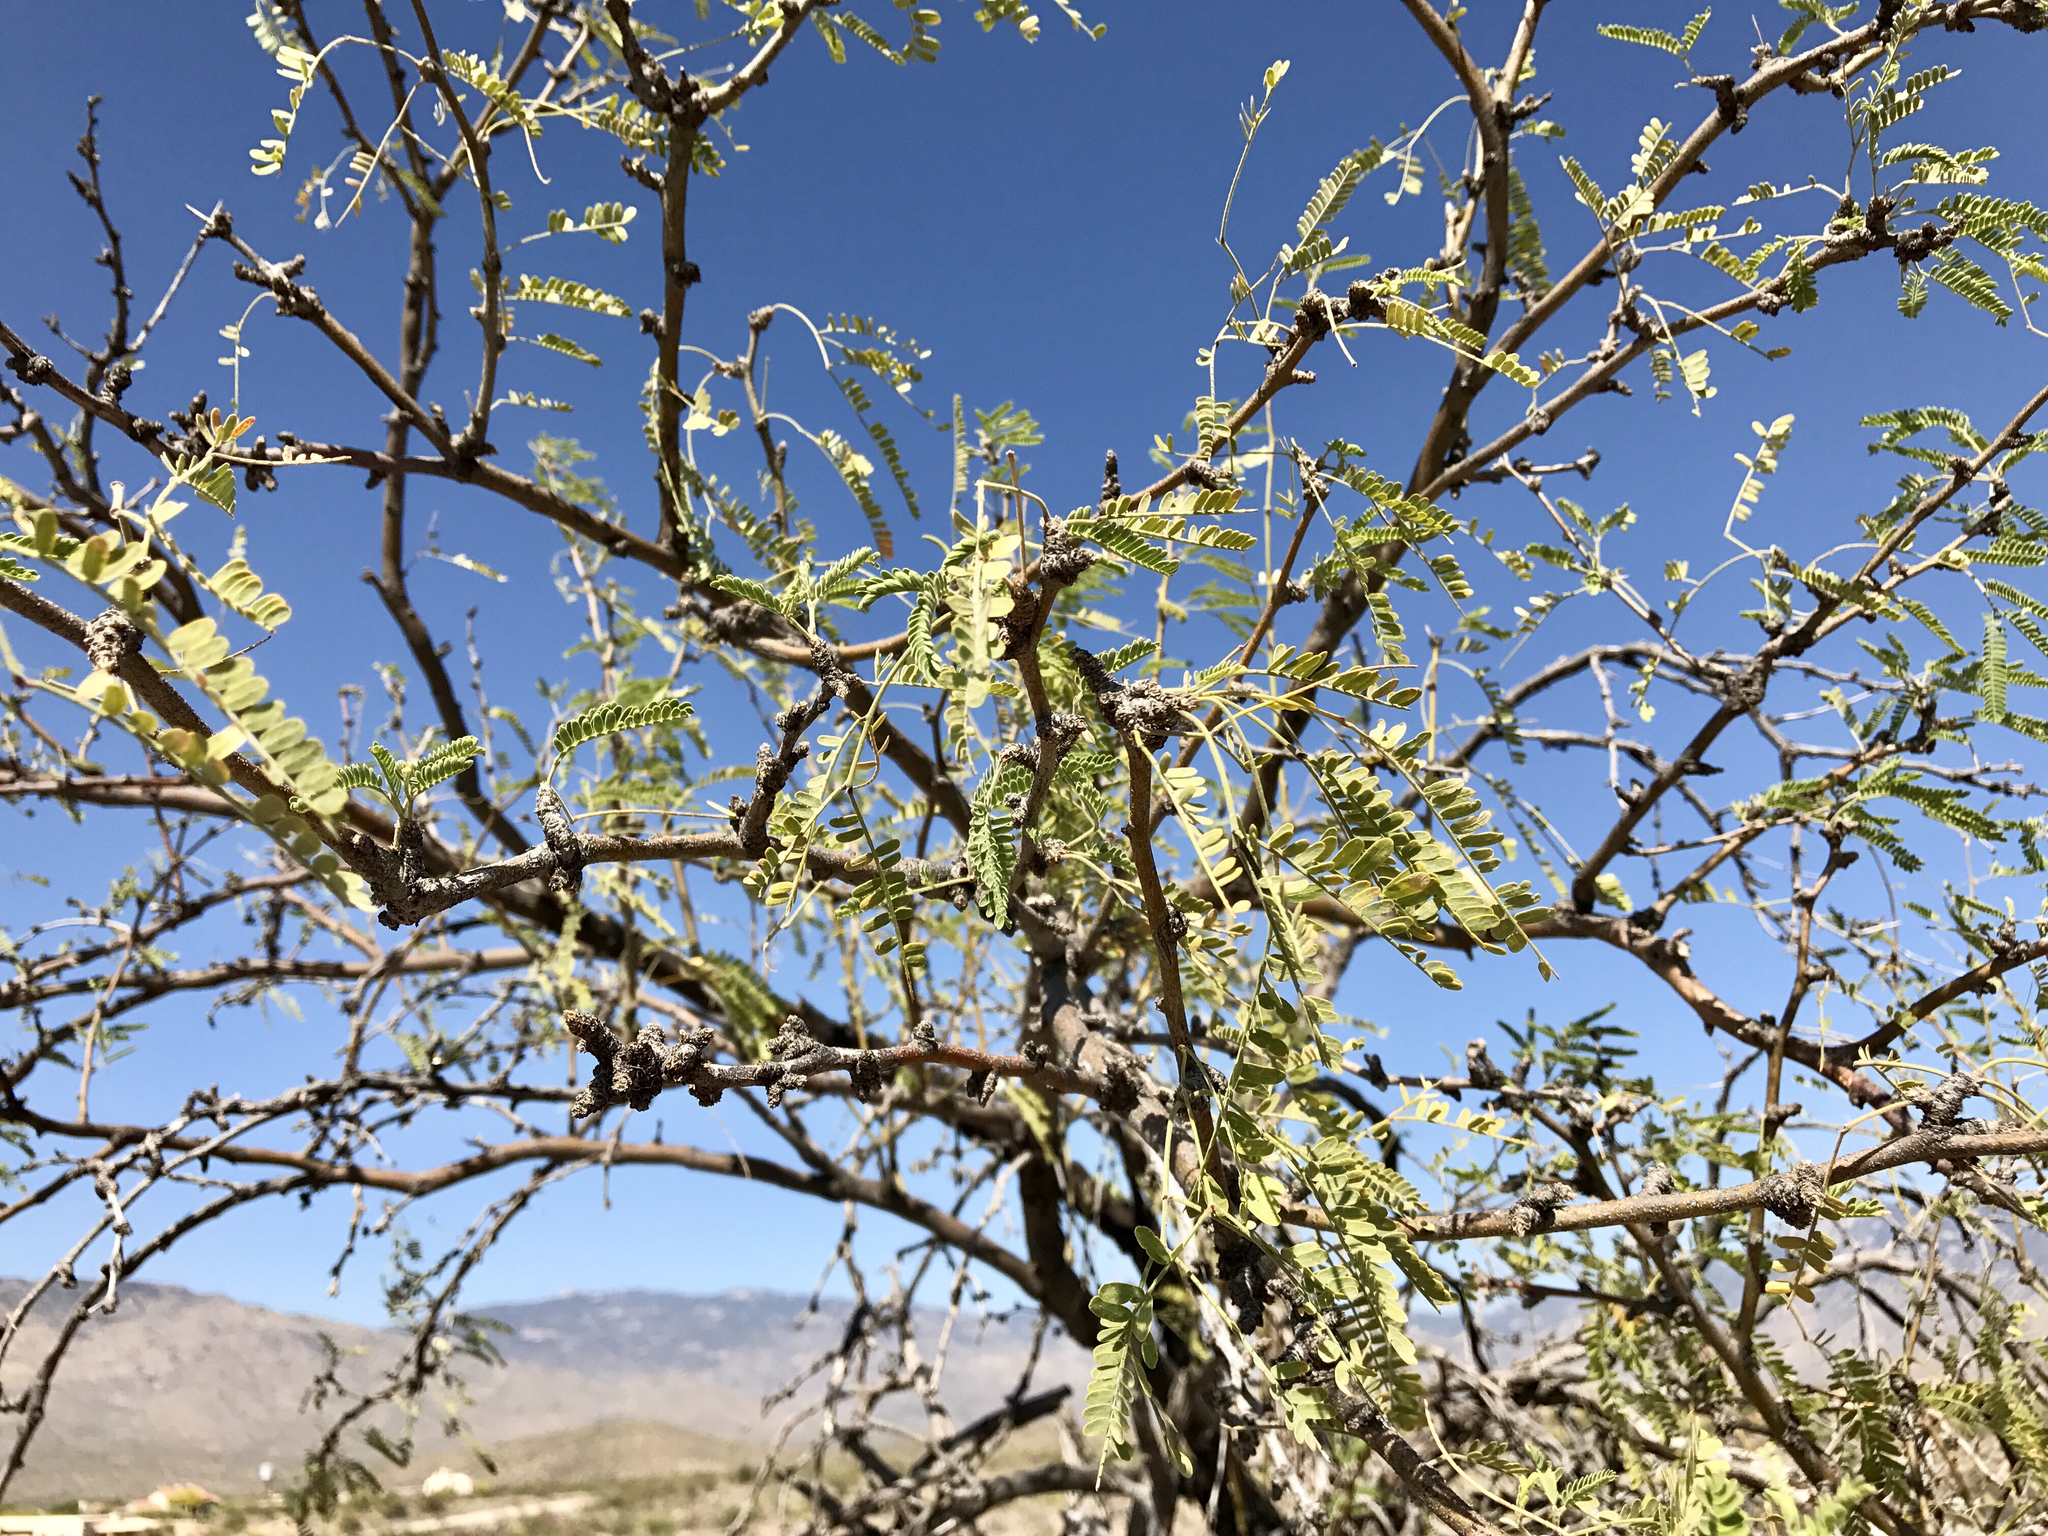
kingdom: Plantae
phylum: Tracheophyta
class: Magnoliopsida
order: Fabales
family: Fabaceae
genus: Prosopis
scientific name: Prosopis velutina
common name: Velvet mesquite
